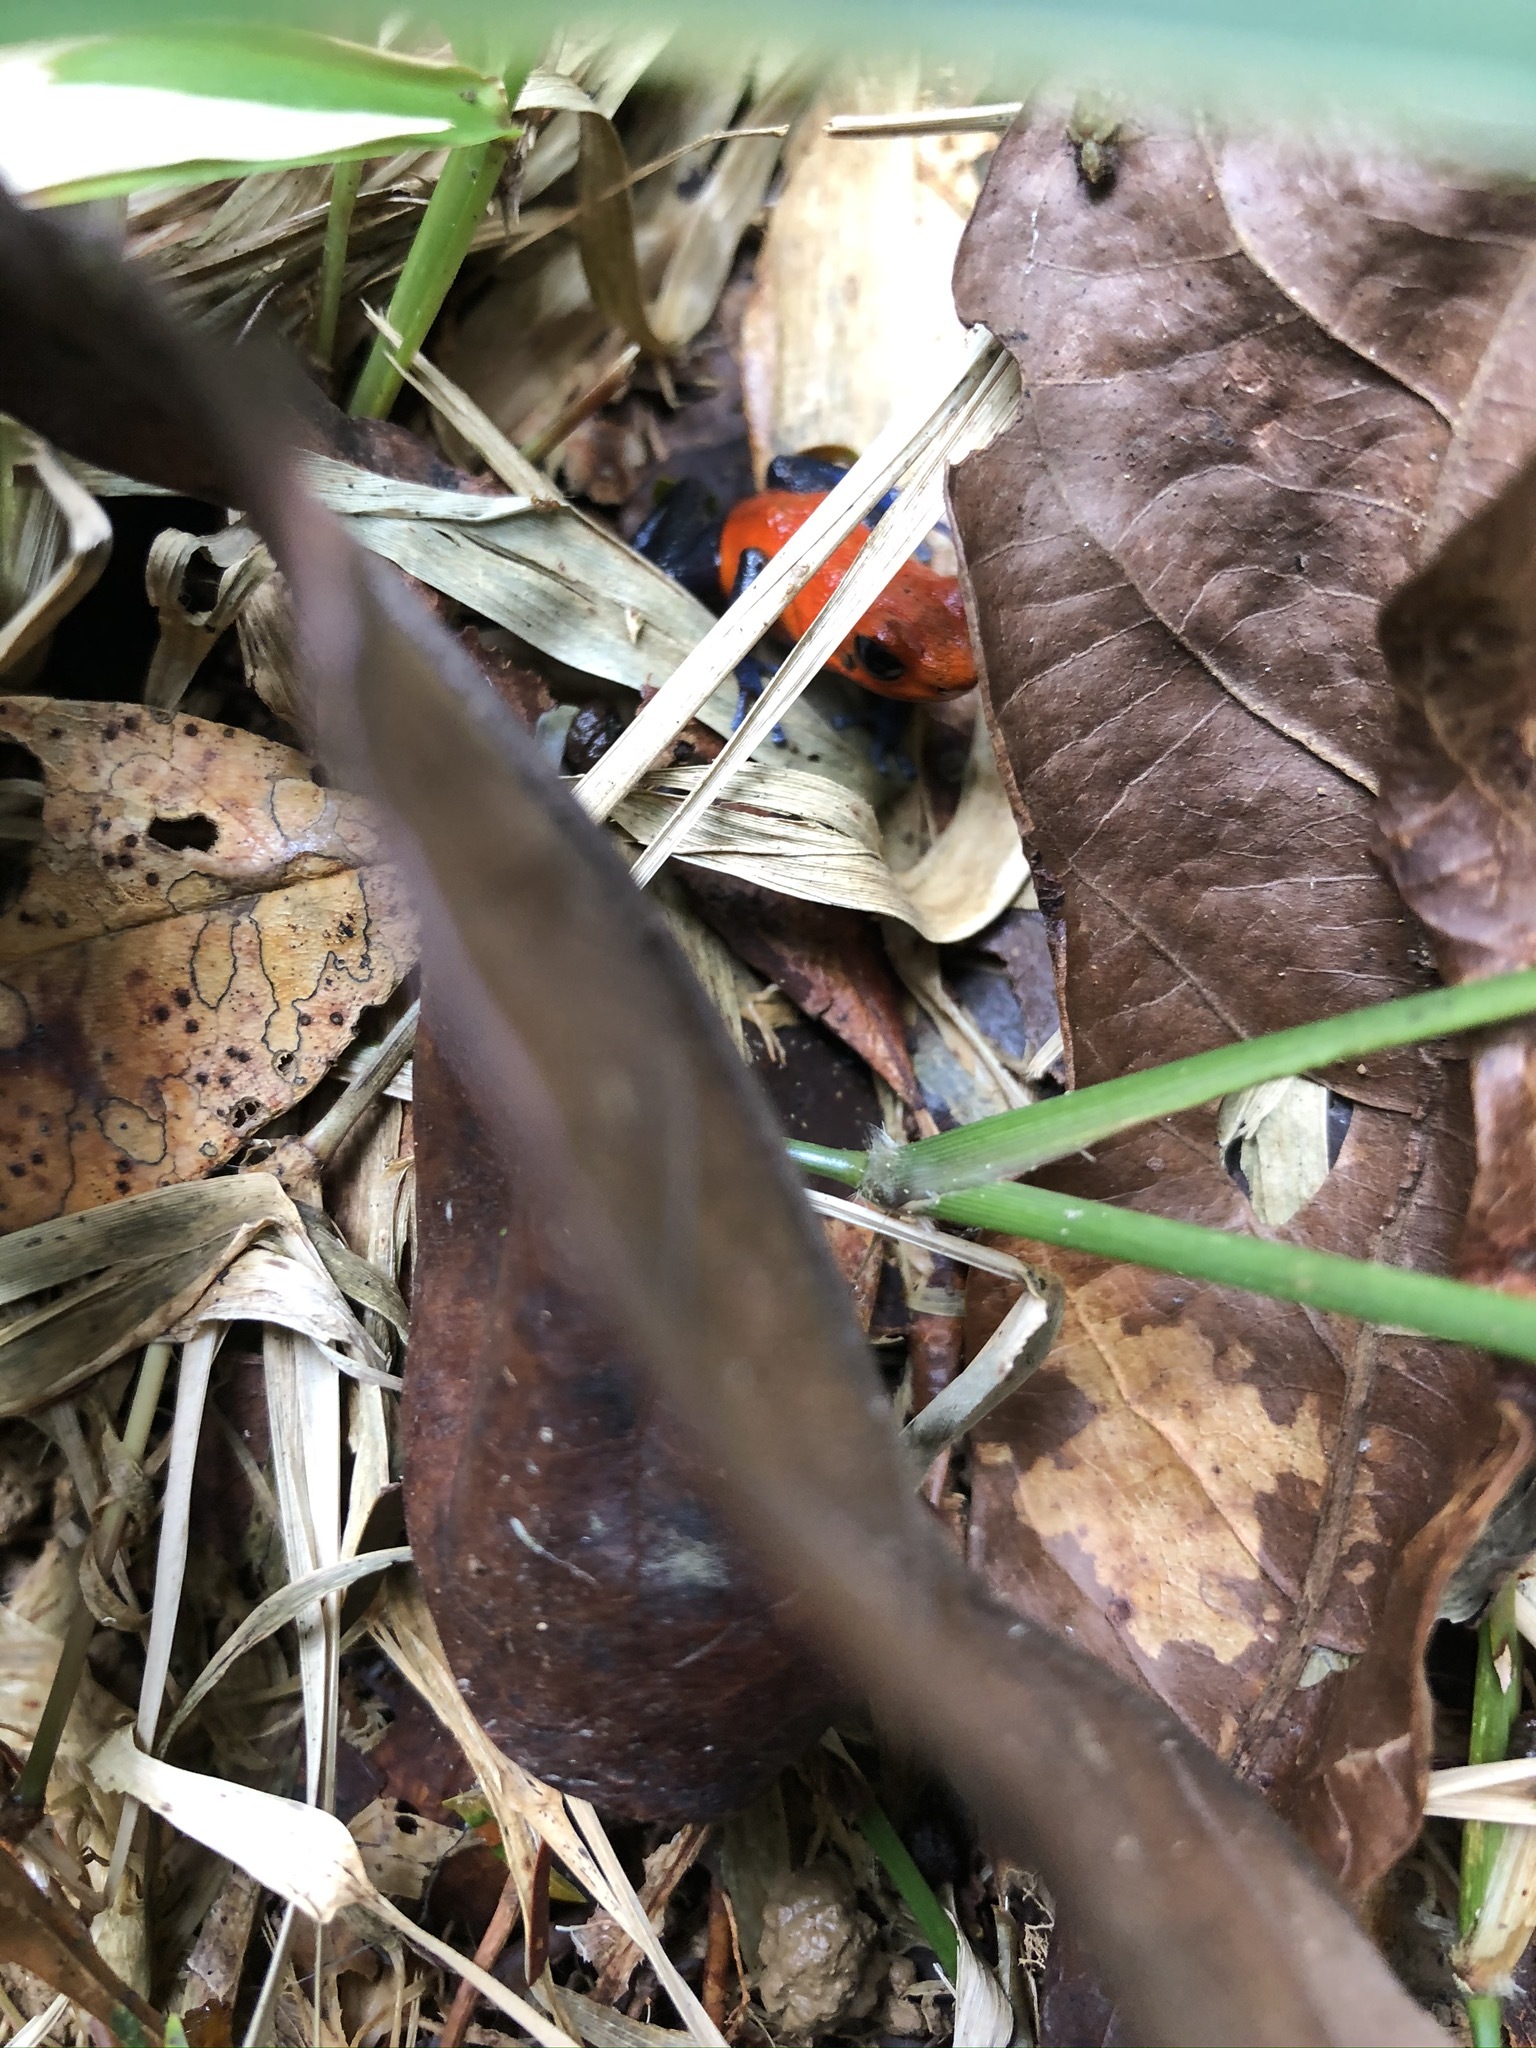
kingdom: Animalia
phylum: Chordata
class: Amphibia
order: Anura
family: Dendrobatidae
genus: Oophaga
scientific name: Oophaga pumilio
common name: Flaming poison frog
